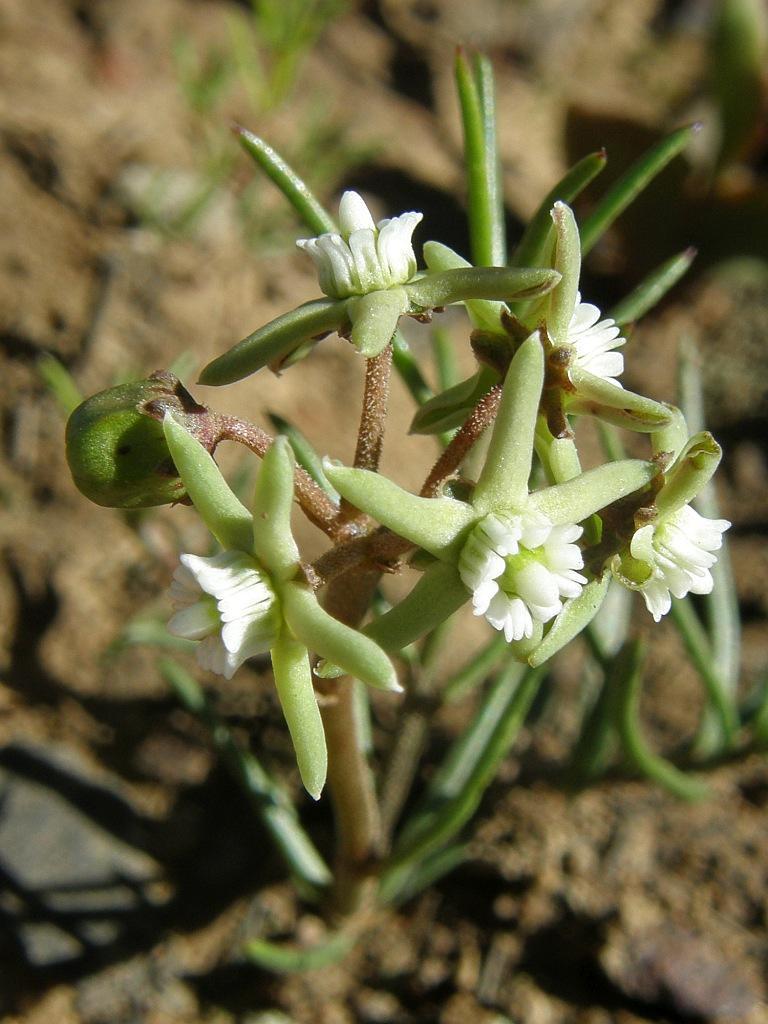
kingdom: Plantae
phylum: Tracheophyta
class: Magnoliopsida
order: Gentianales
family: Apocynaceae
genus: Eustegia
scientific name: Eustegia minuta
